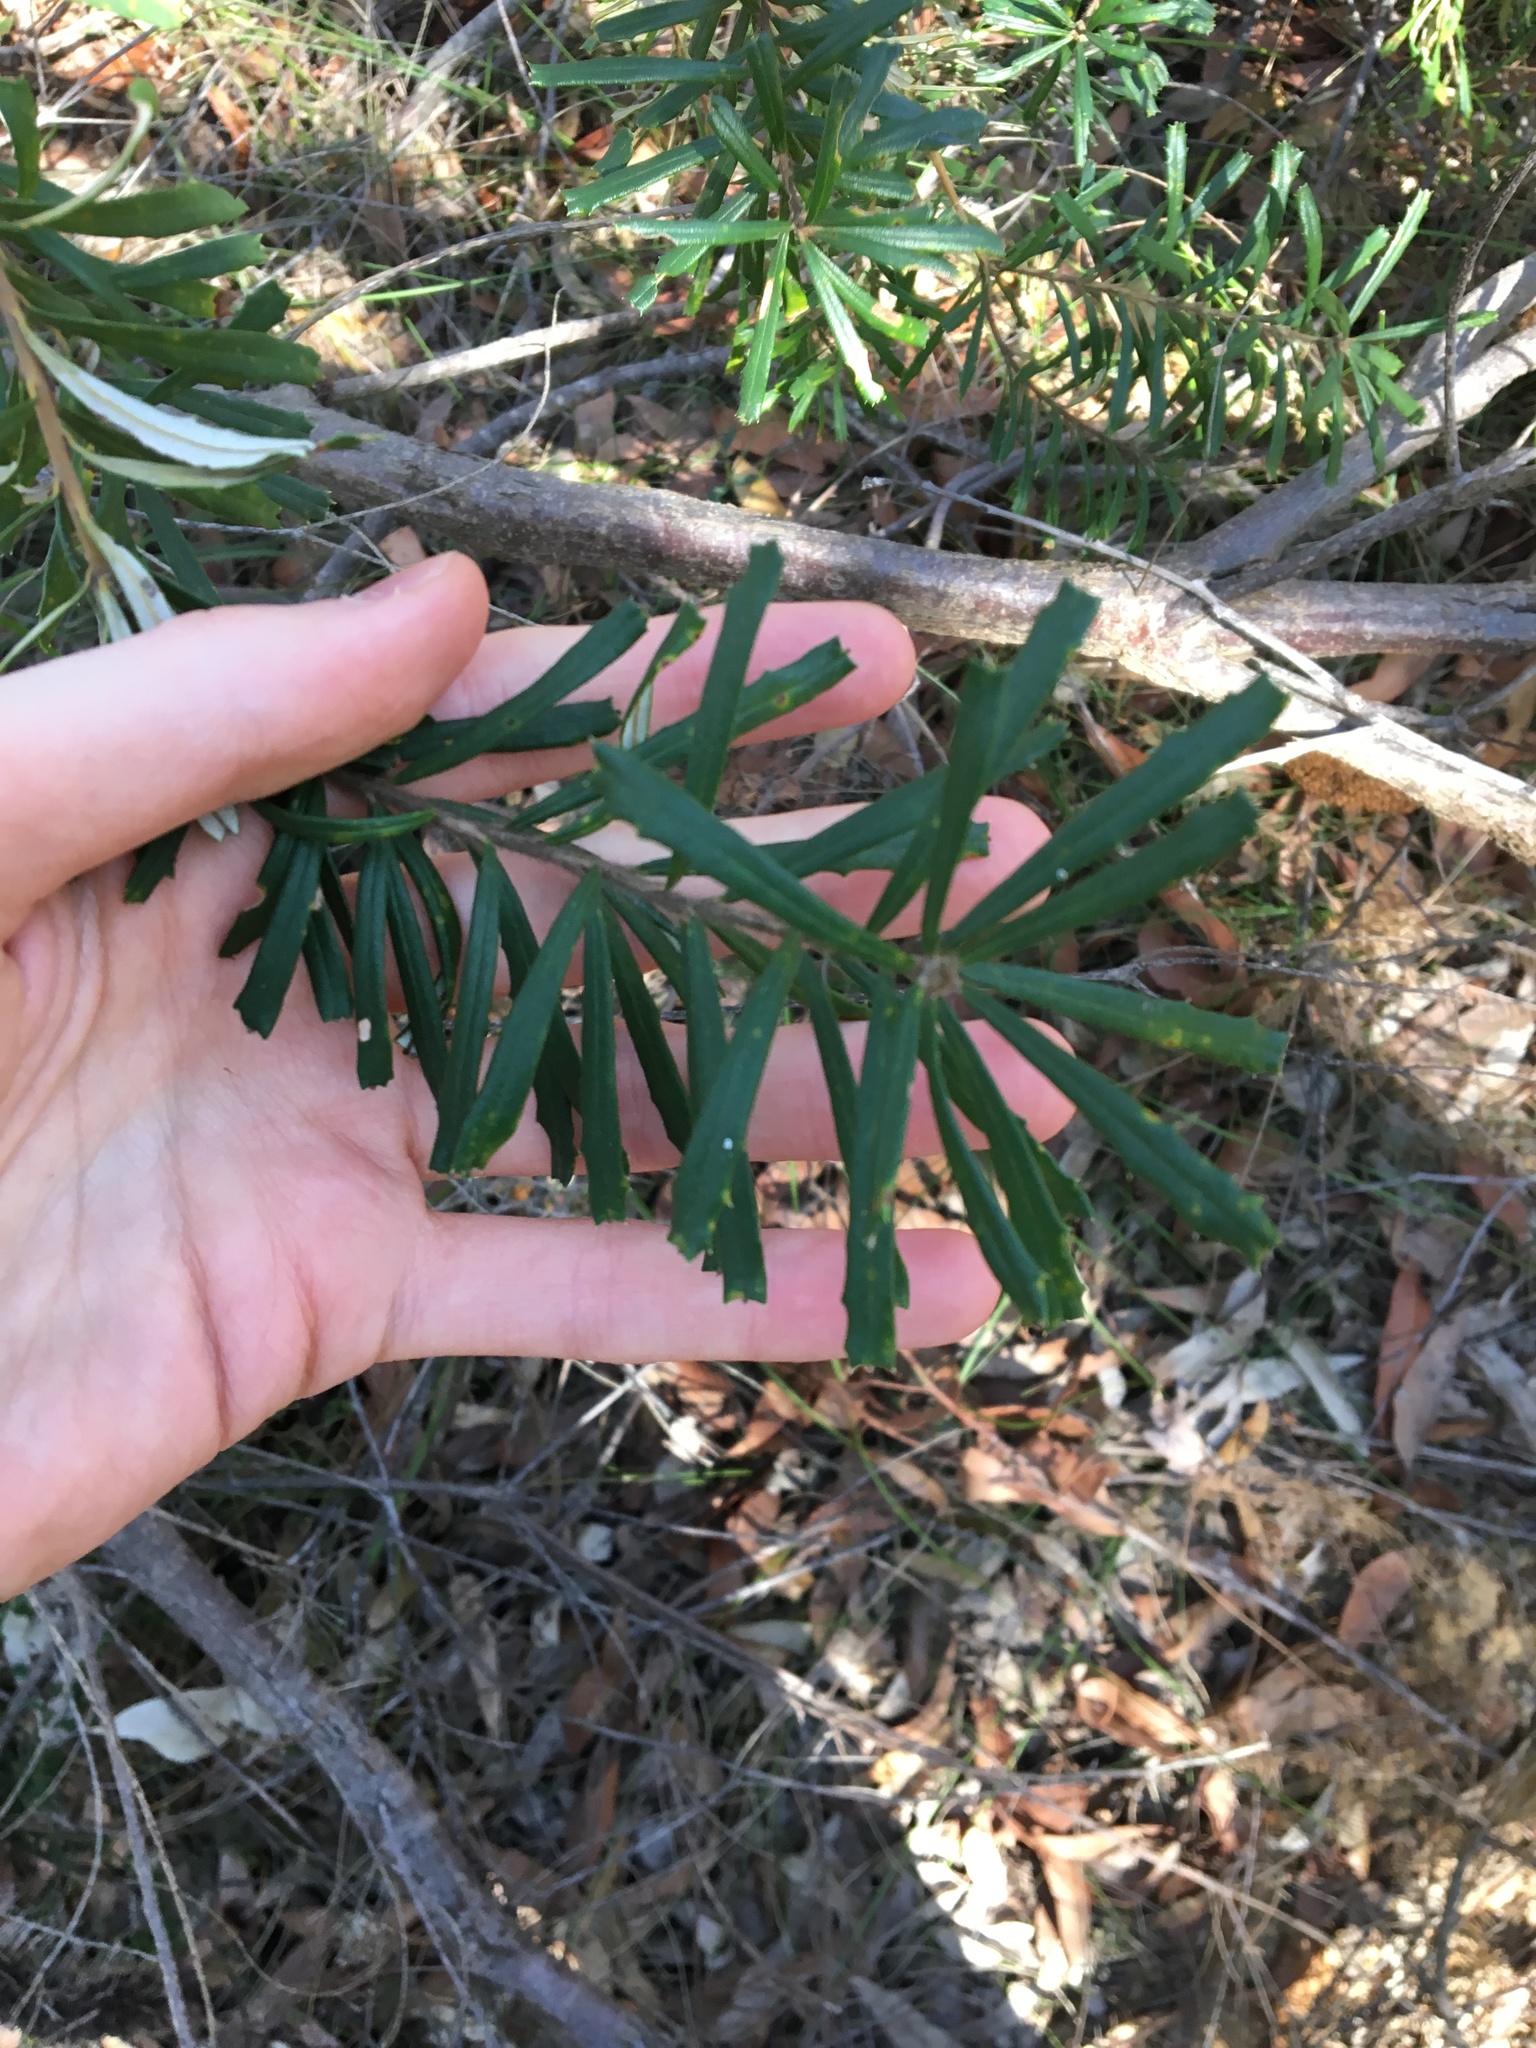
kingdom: Plantae
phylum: Tracheophyta
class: Magnoliopsida
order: Proteales
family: Proteaceae
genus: Banksia
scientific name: Banksia marginata
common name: Silver banksia
